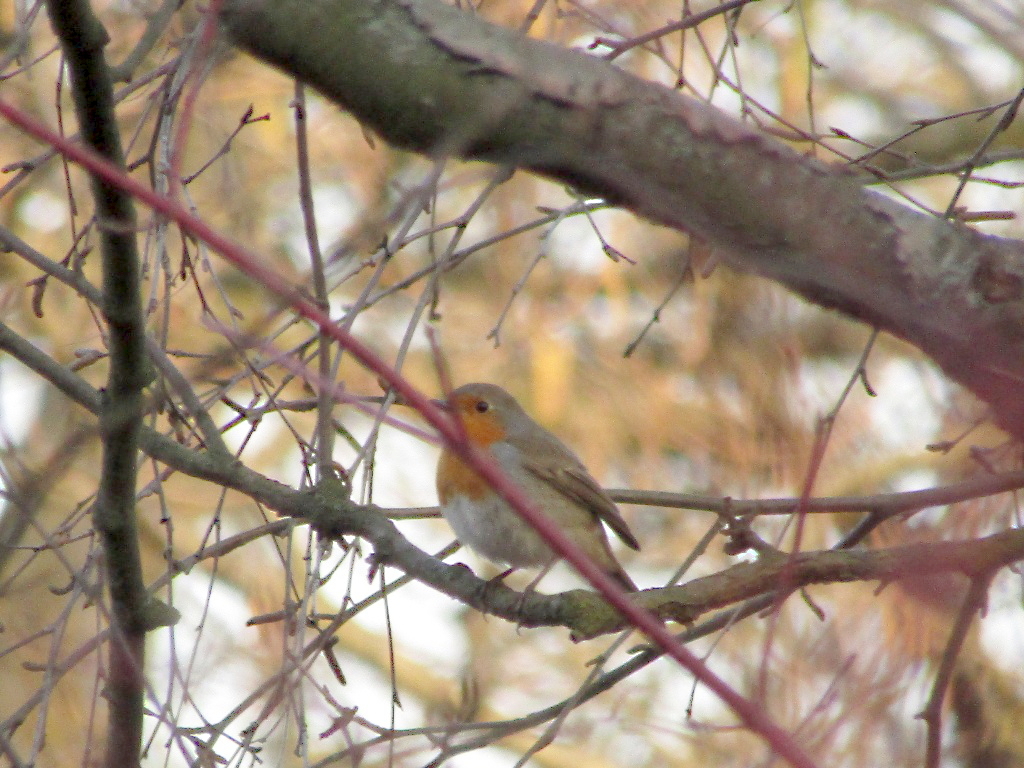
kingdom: Animalia
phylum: Chordata
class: Aves
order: Passeriformes
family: Muscicapidae
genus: Erithacus
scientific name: Erithacus rubecula
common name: European robin
